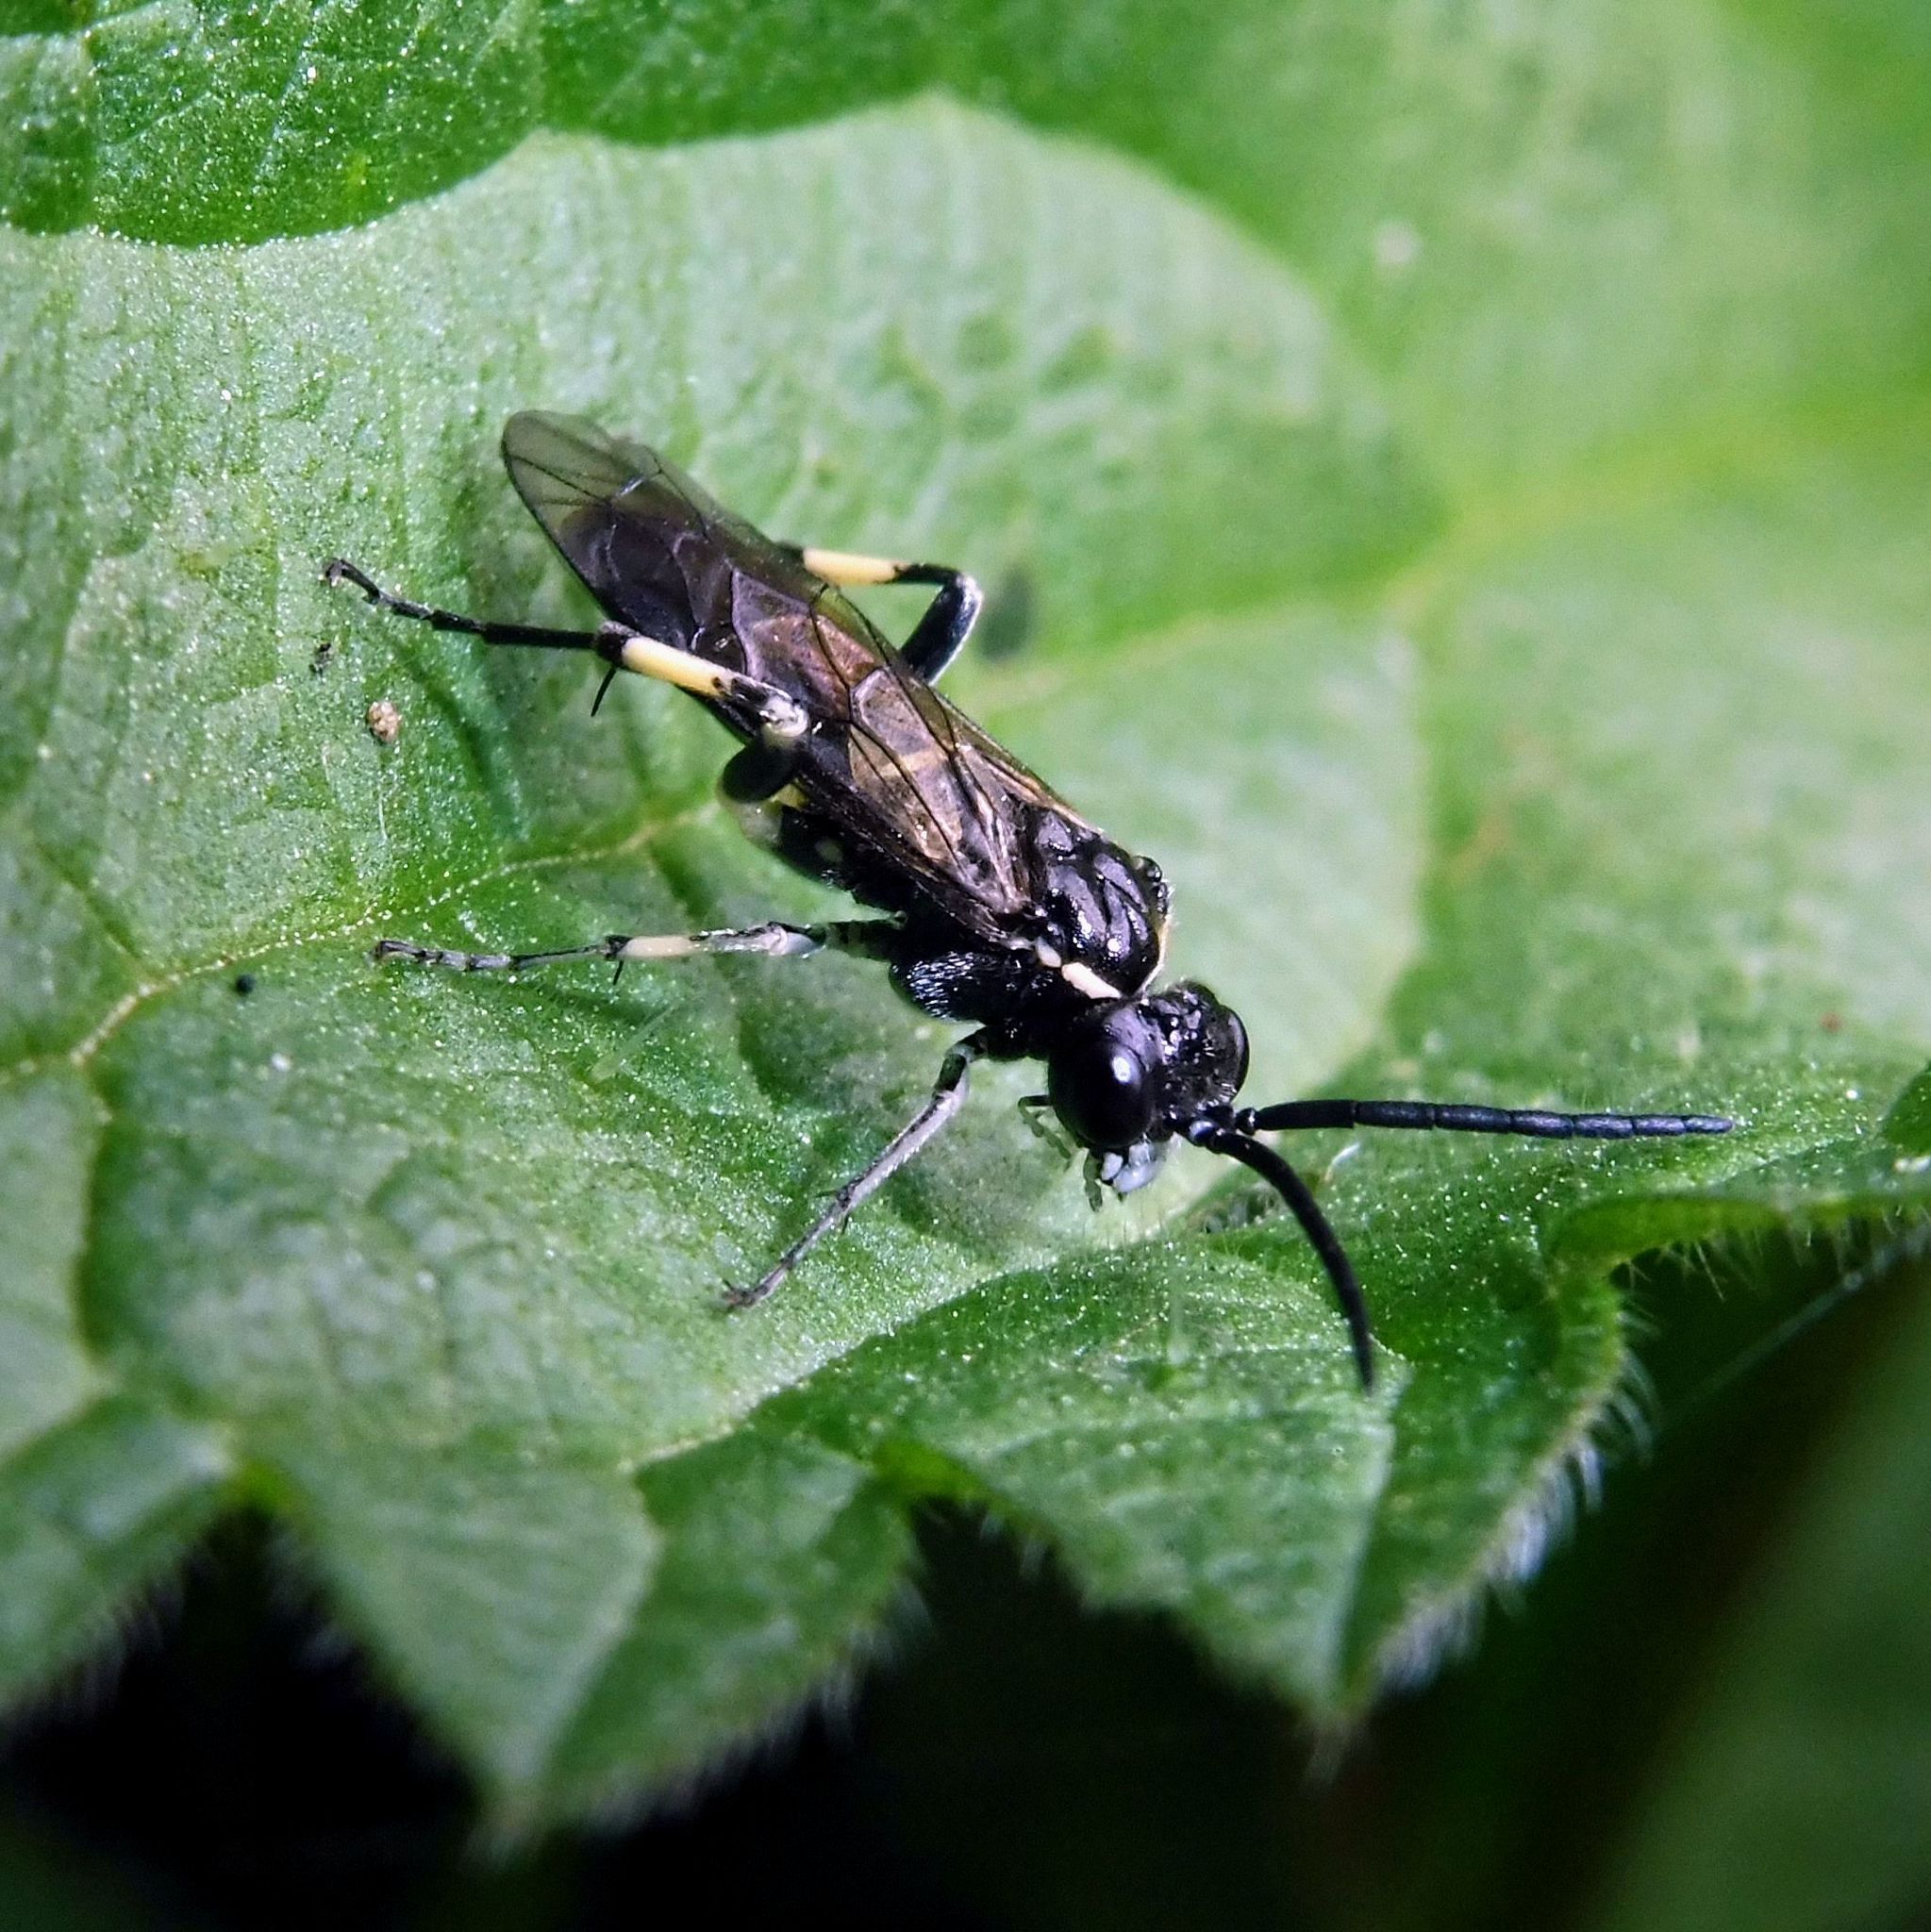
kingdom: Animalia
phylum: Arthropoda
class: Insecta
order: Hymenoptera
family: Tenthredinidae
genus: Macrophya
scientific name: Macrophya alboannulata
